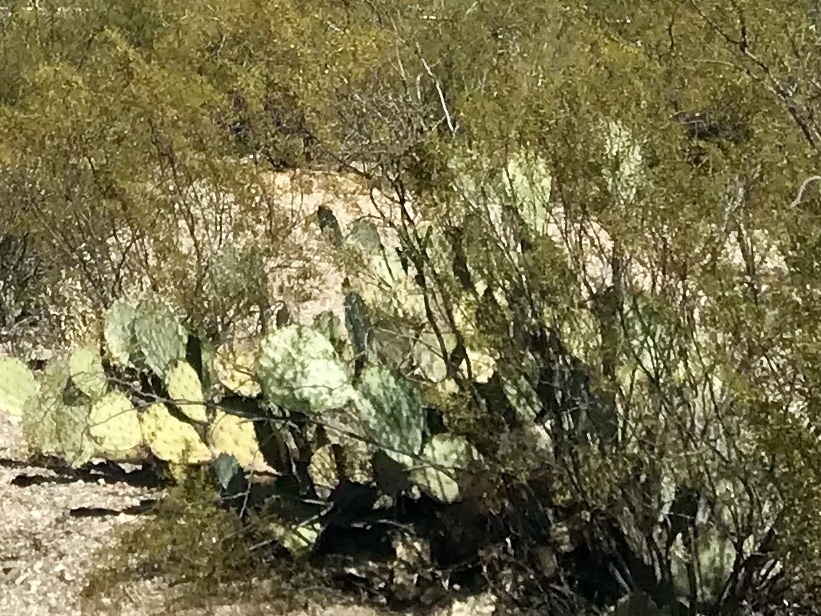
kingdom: Plantae
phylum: Tracheophyta
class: Magnoliopsida
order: Caryophyllales
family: Cactaceae
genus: Opuntia
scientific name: Opuntia engelmannii
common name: Cactus-apple
